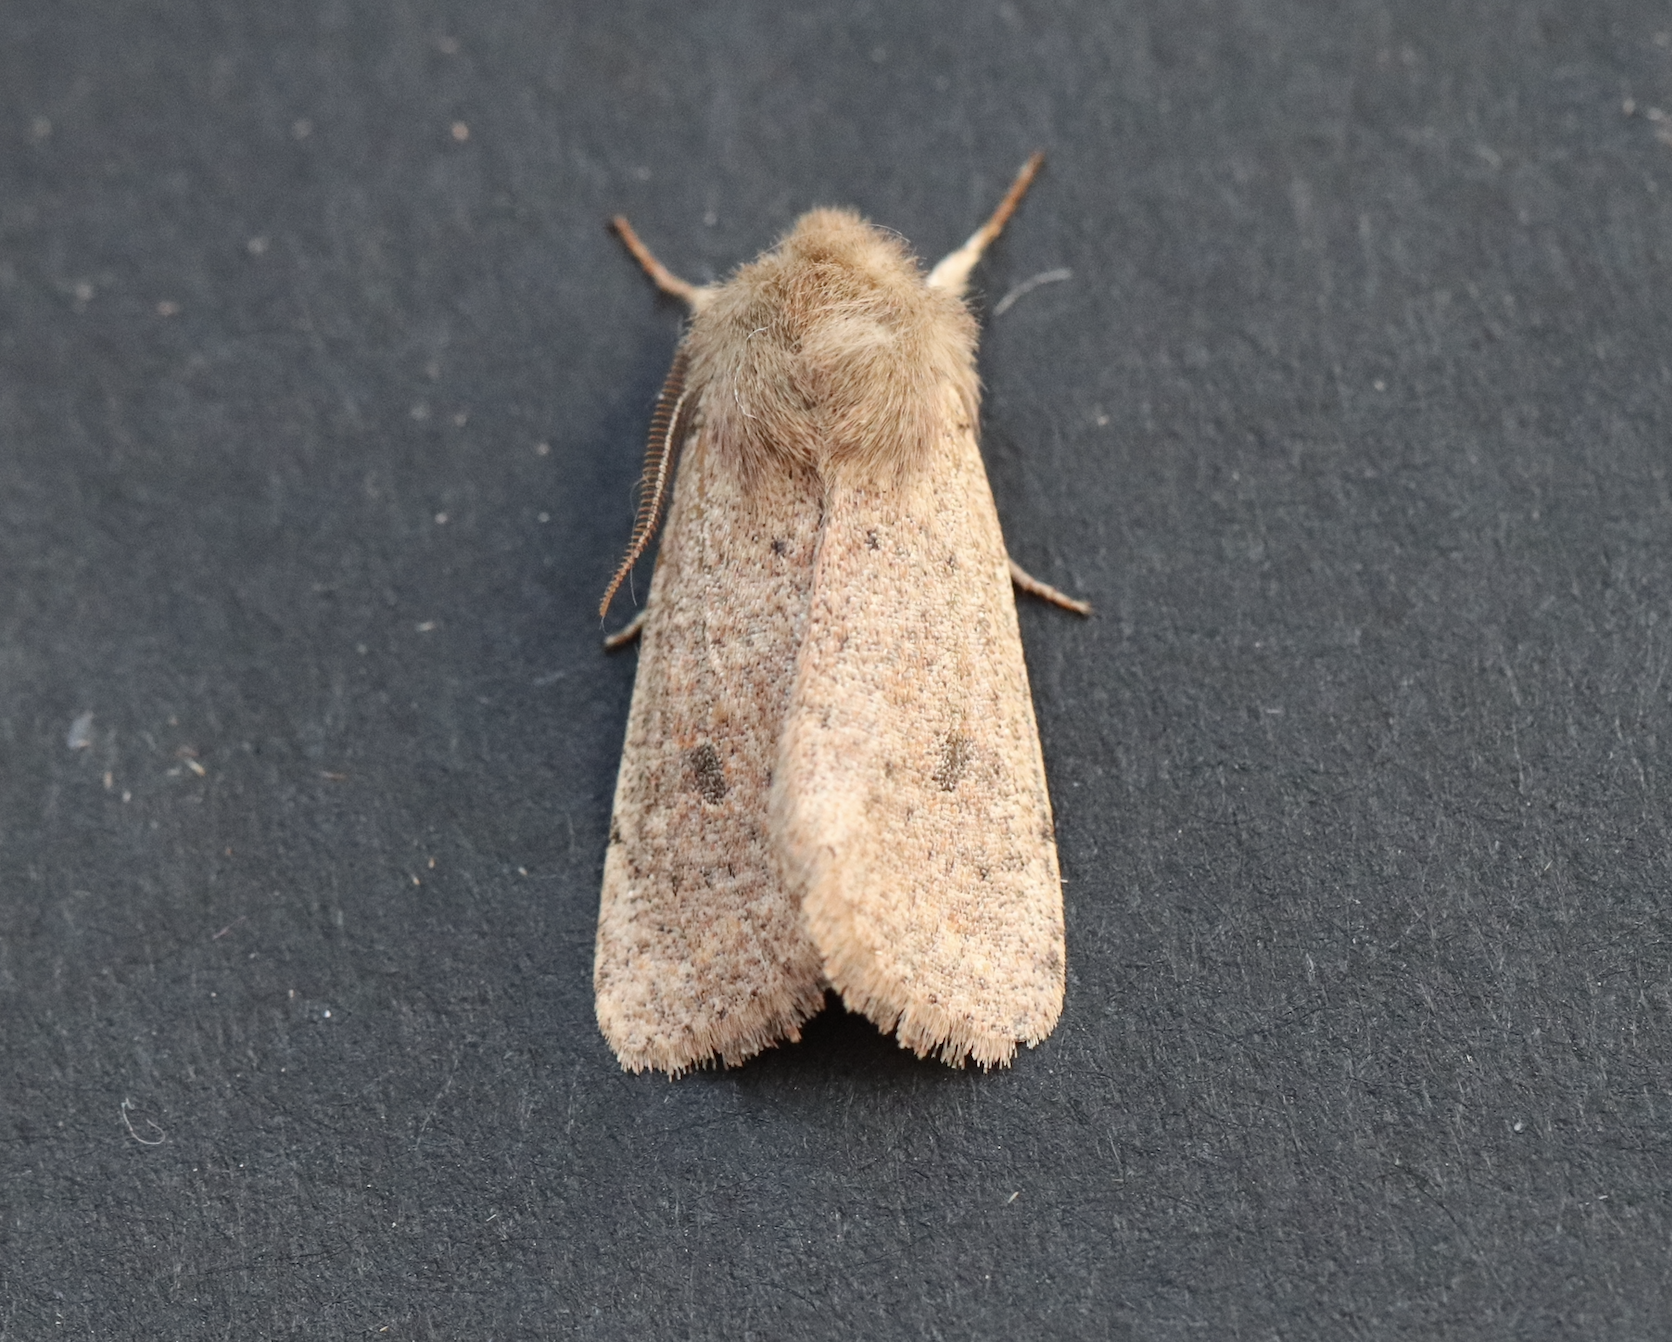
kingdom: Animalia
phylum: Arthropoda
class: Insecta
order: Lepidoptera
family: Noctuidae
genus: Orthosia
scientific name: Orthosia cruda
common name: Small quaker
